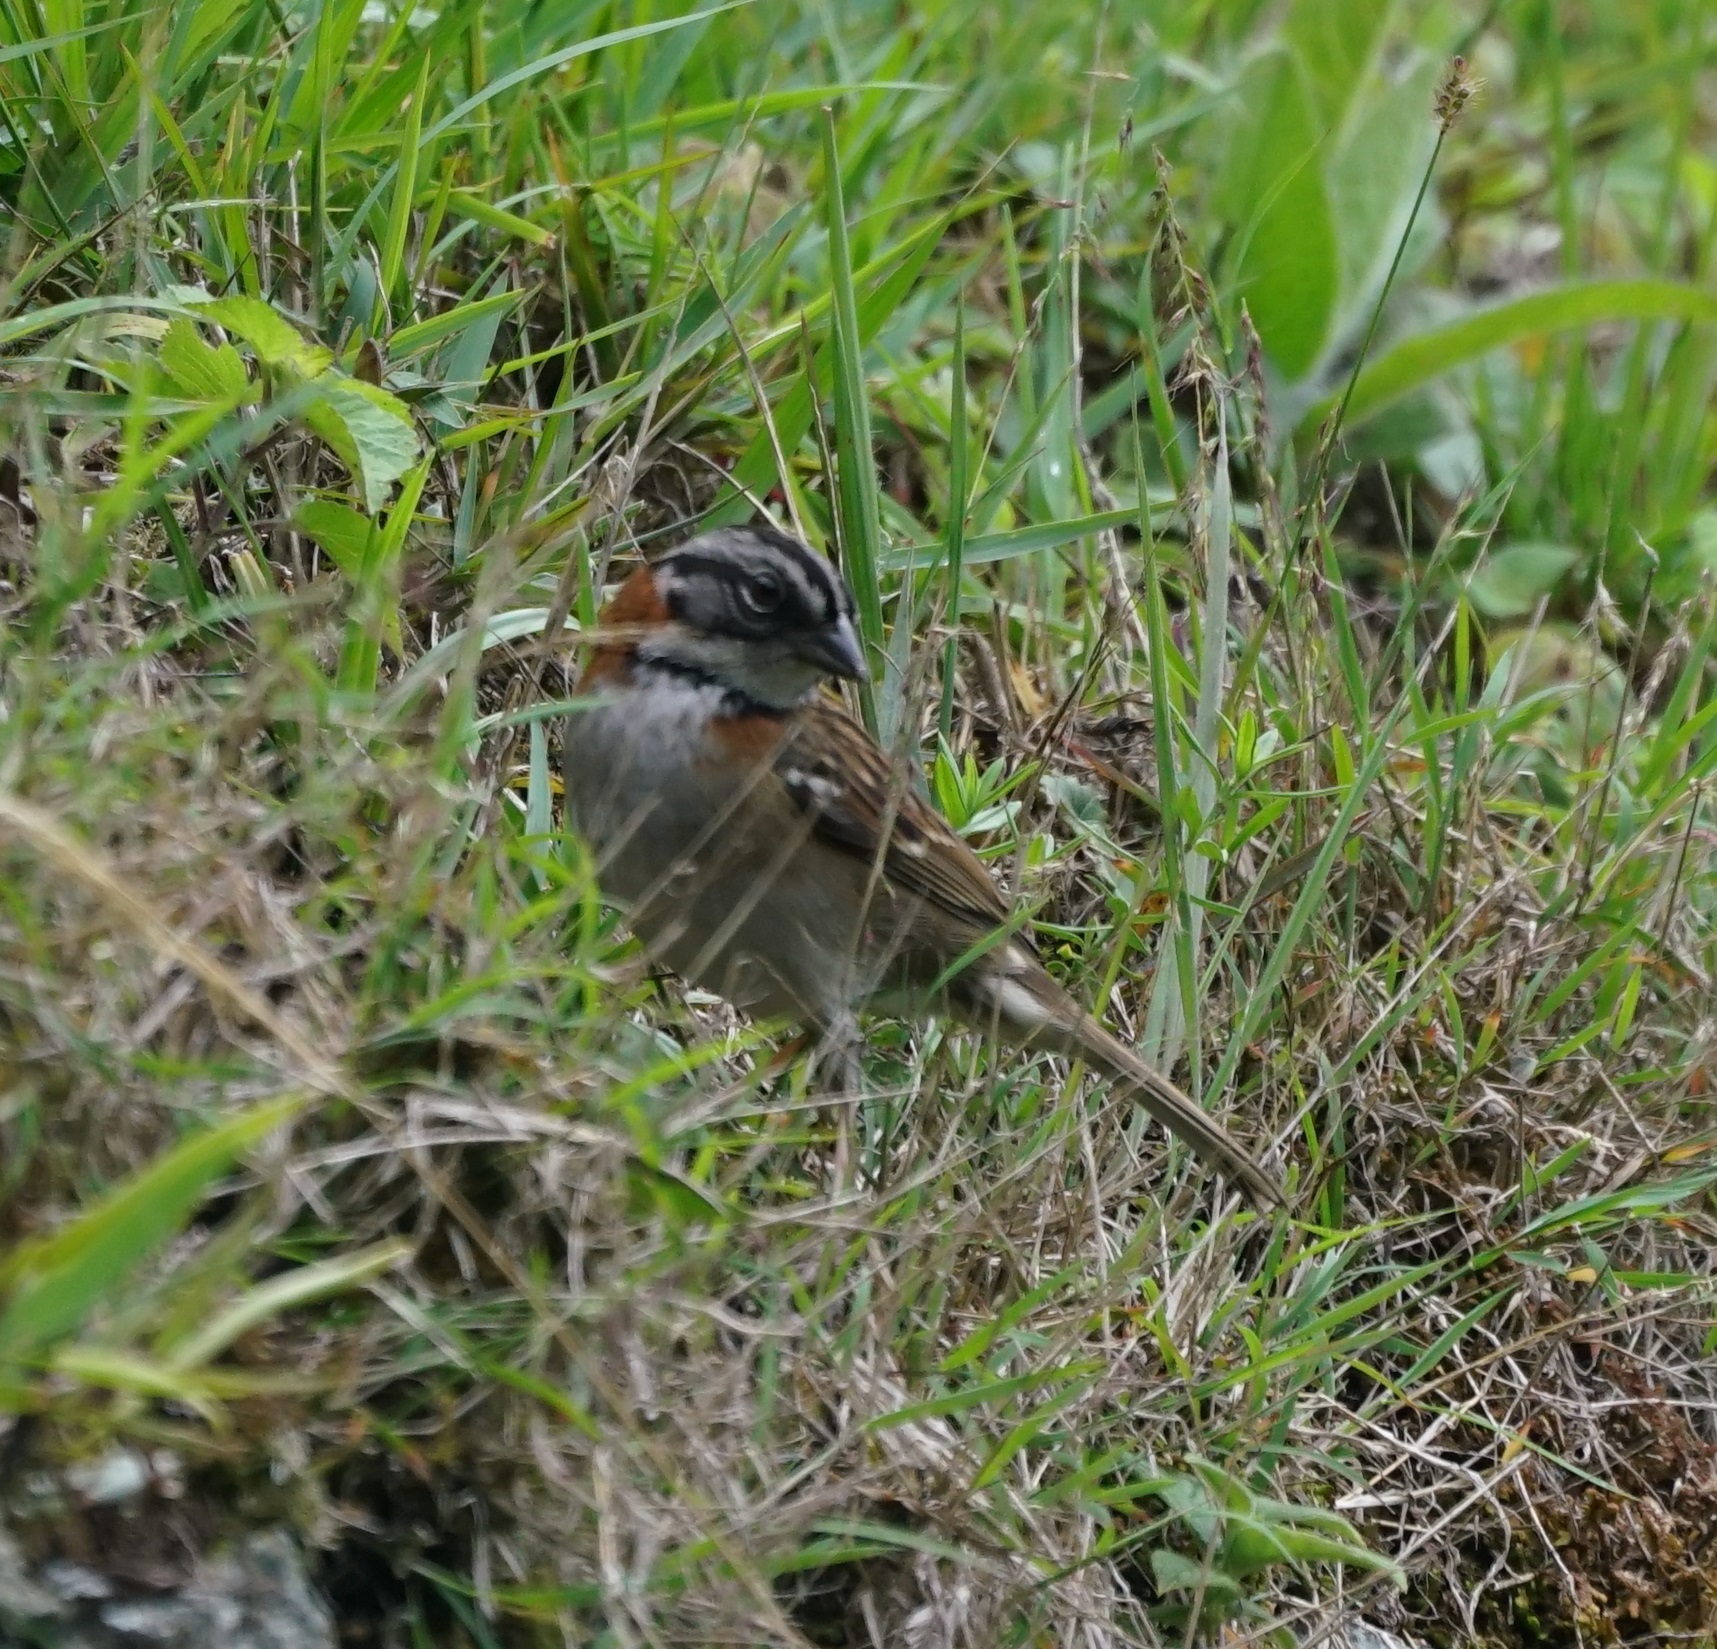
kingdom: Animalia
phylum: Chordata
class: Aves
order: Passeriformes
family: Passerellidae
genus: Zonotrichia
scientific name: Zonotrichia capensis
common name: Rufous-collared sparrow
